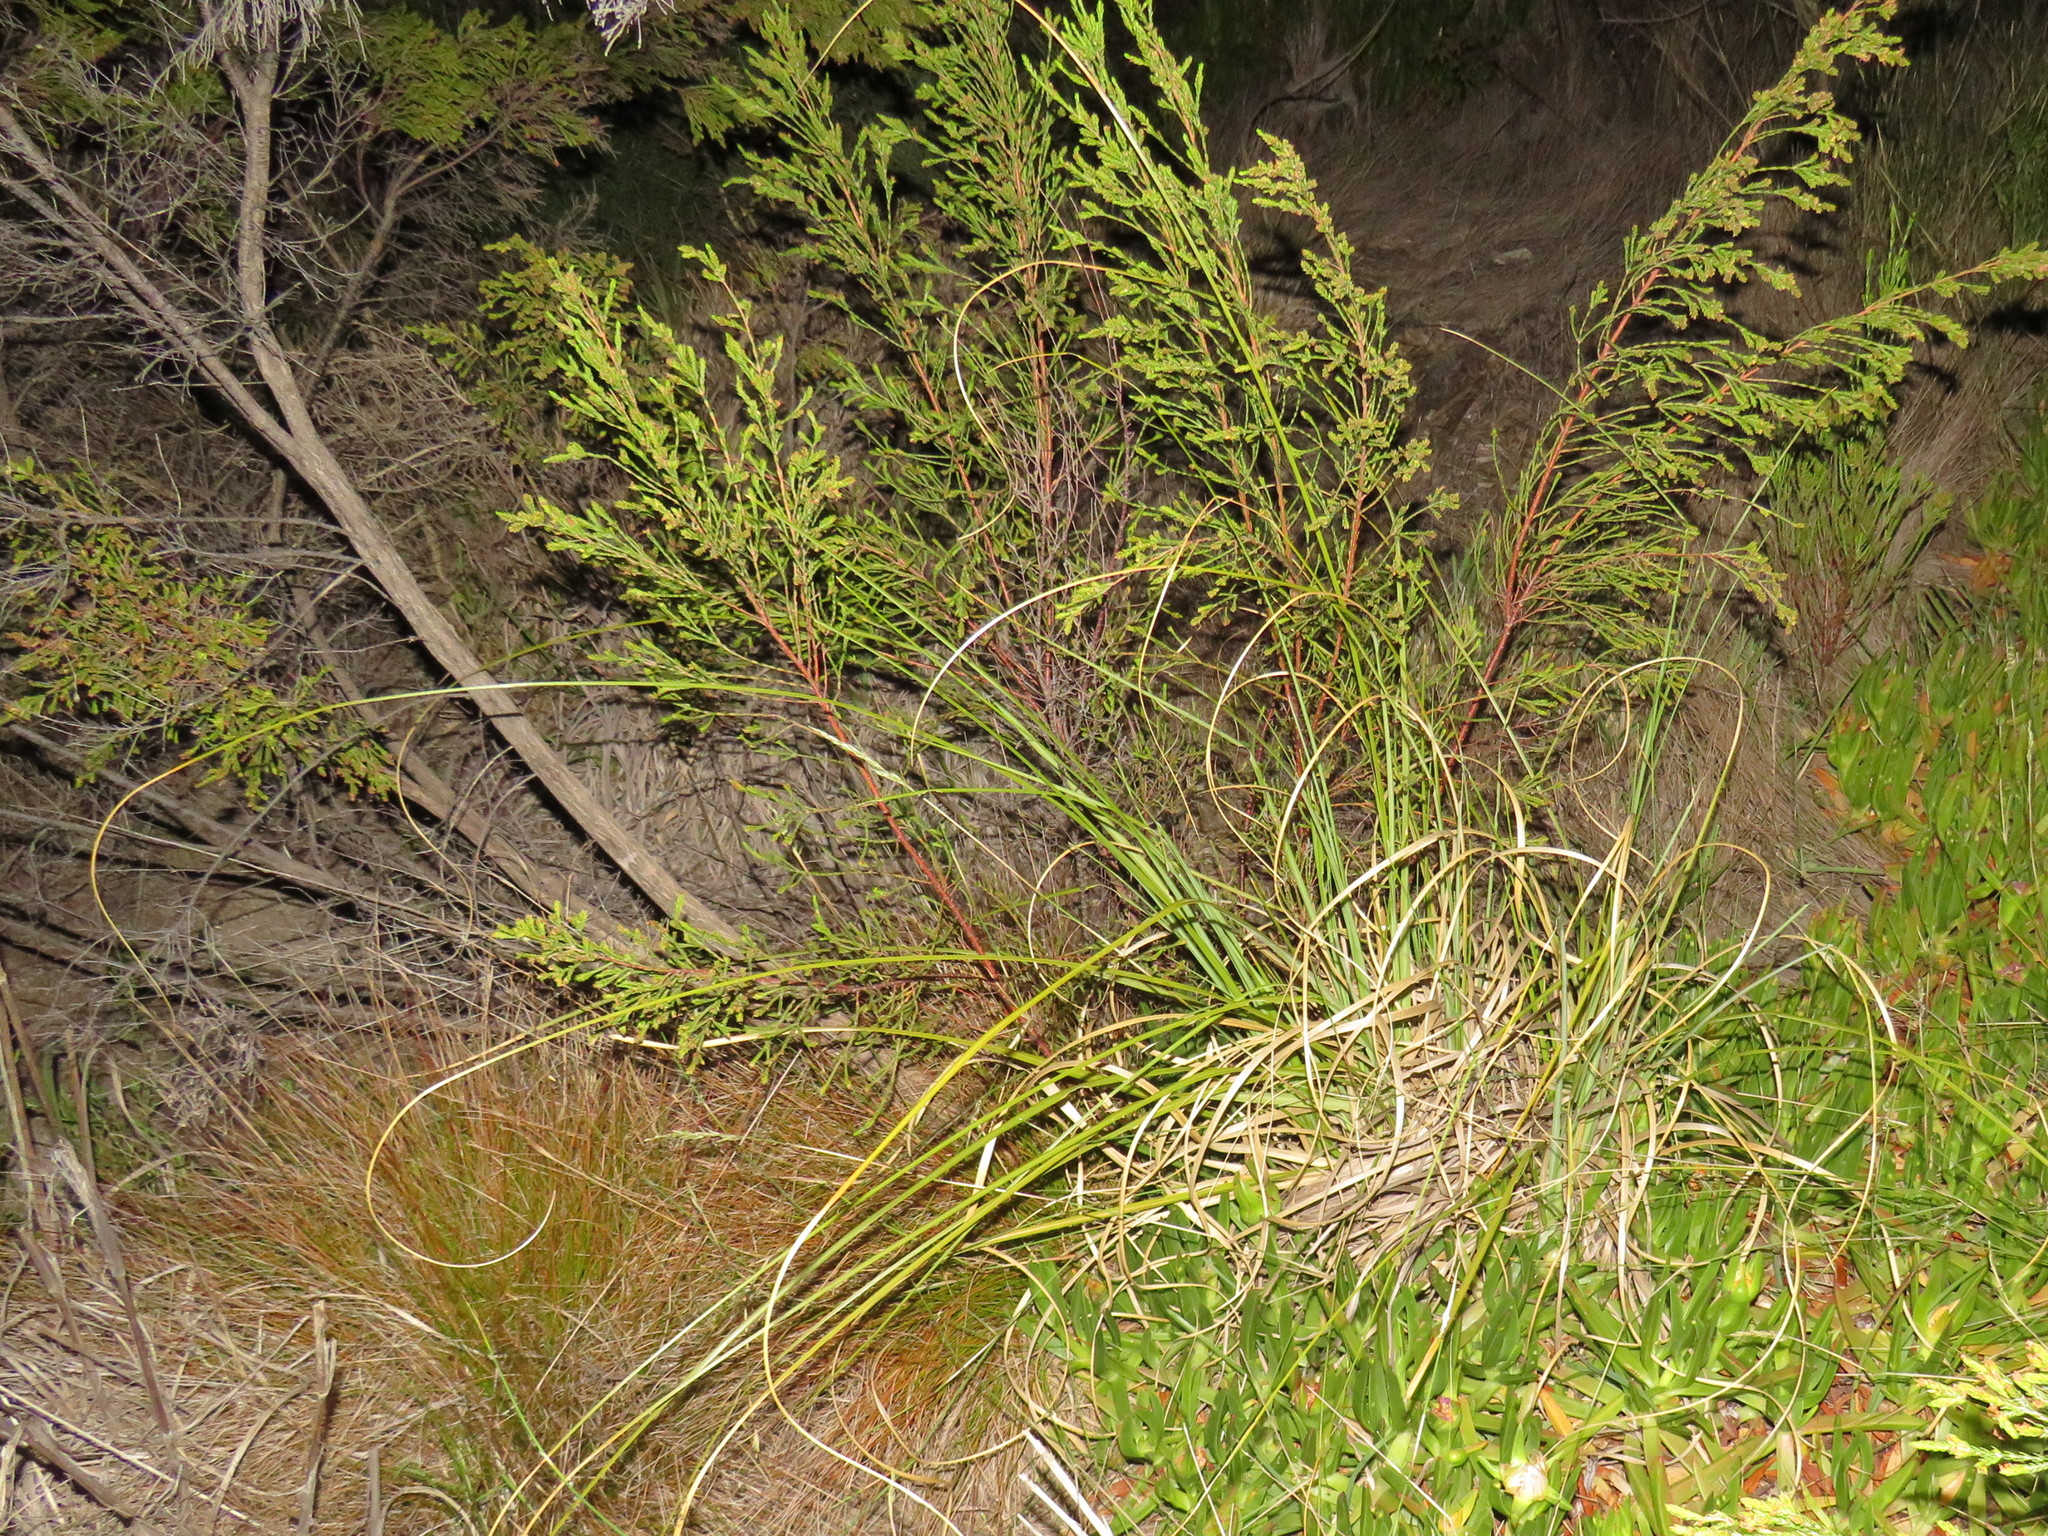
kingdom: Plantae
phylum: Tracheophyta
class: Liliopsida
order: Poales
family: Poaceae
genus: Cortaderia
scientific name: Cortaderia selloana
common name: Uruguayan pampas grass
